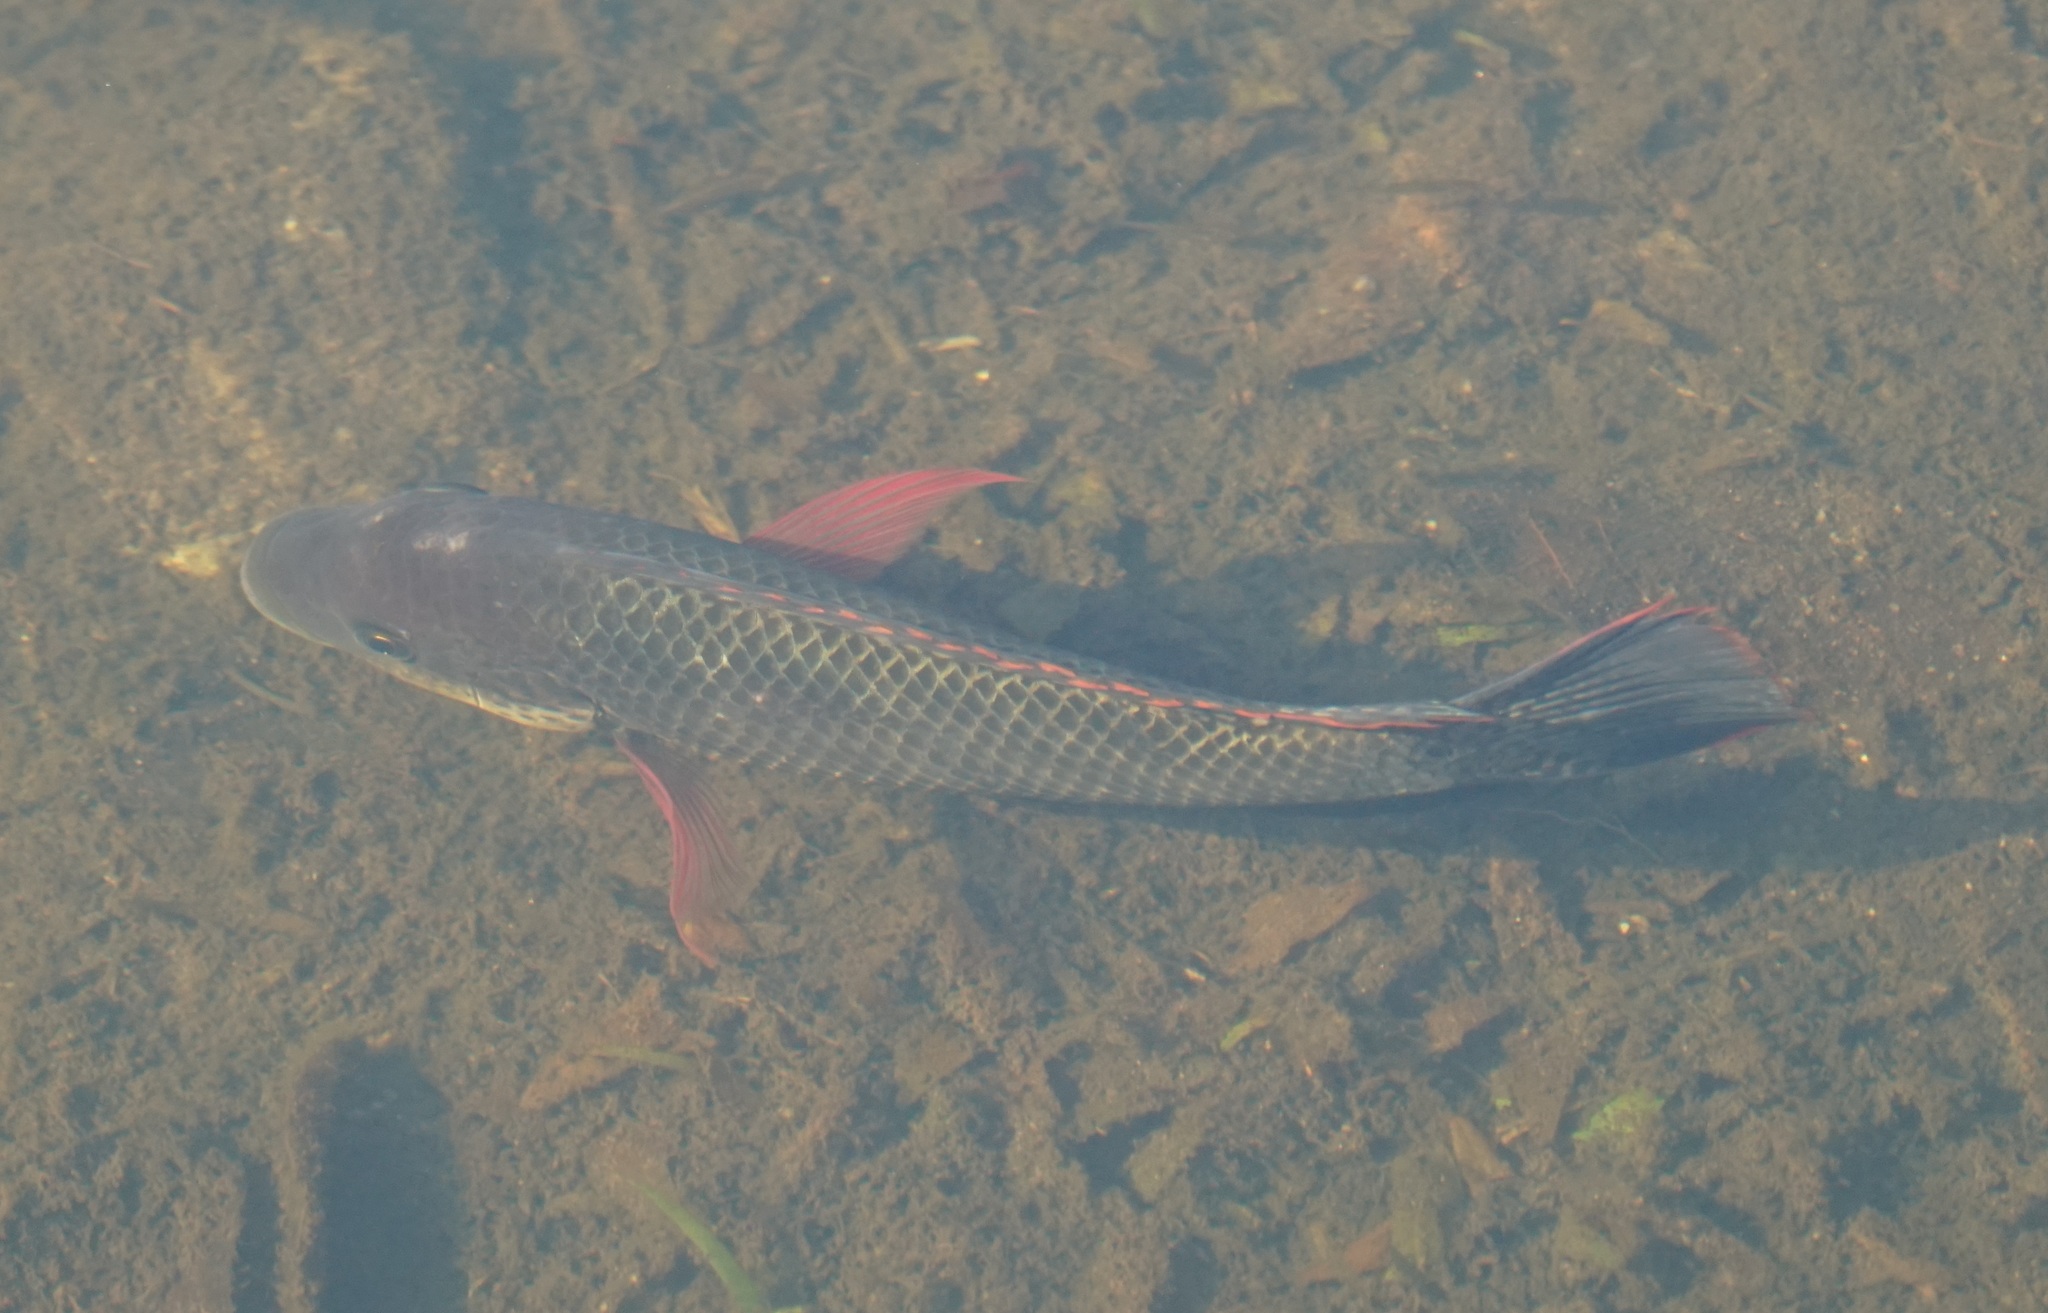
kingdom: Animalia
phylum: Chordata
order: Perciformes
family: Cichlidae
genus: Oreochromis
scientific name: Oreochromis mossambicus
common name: Mozambique tilapia
